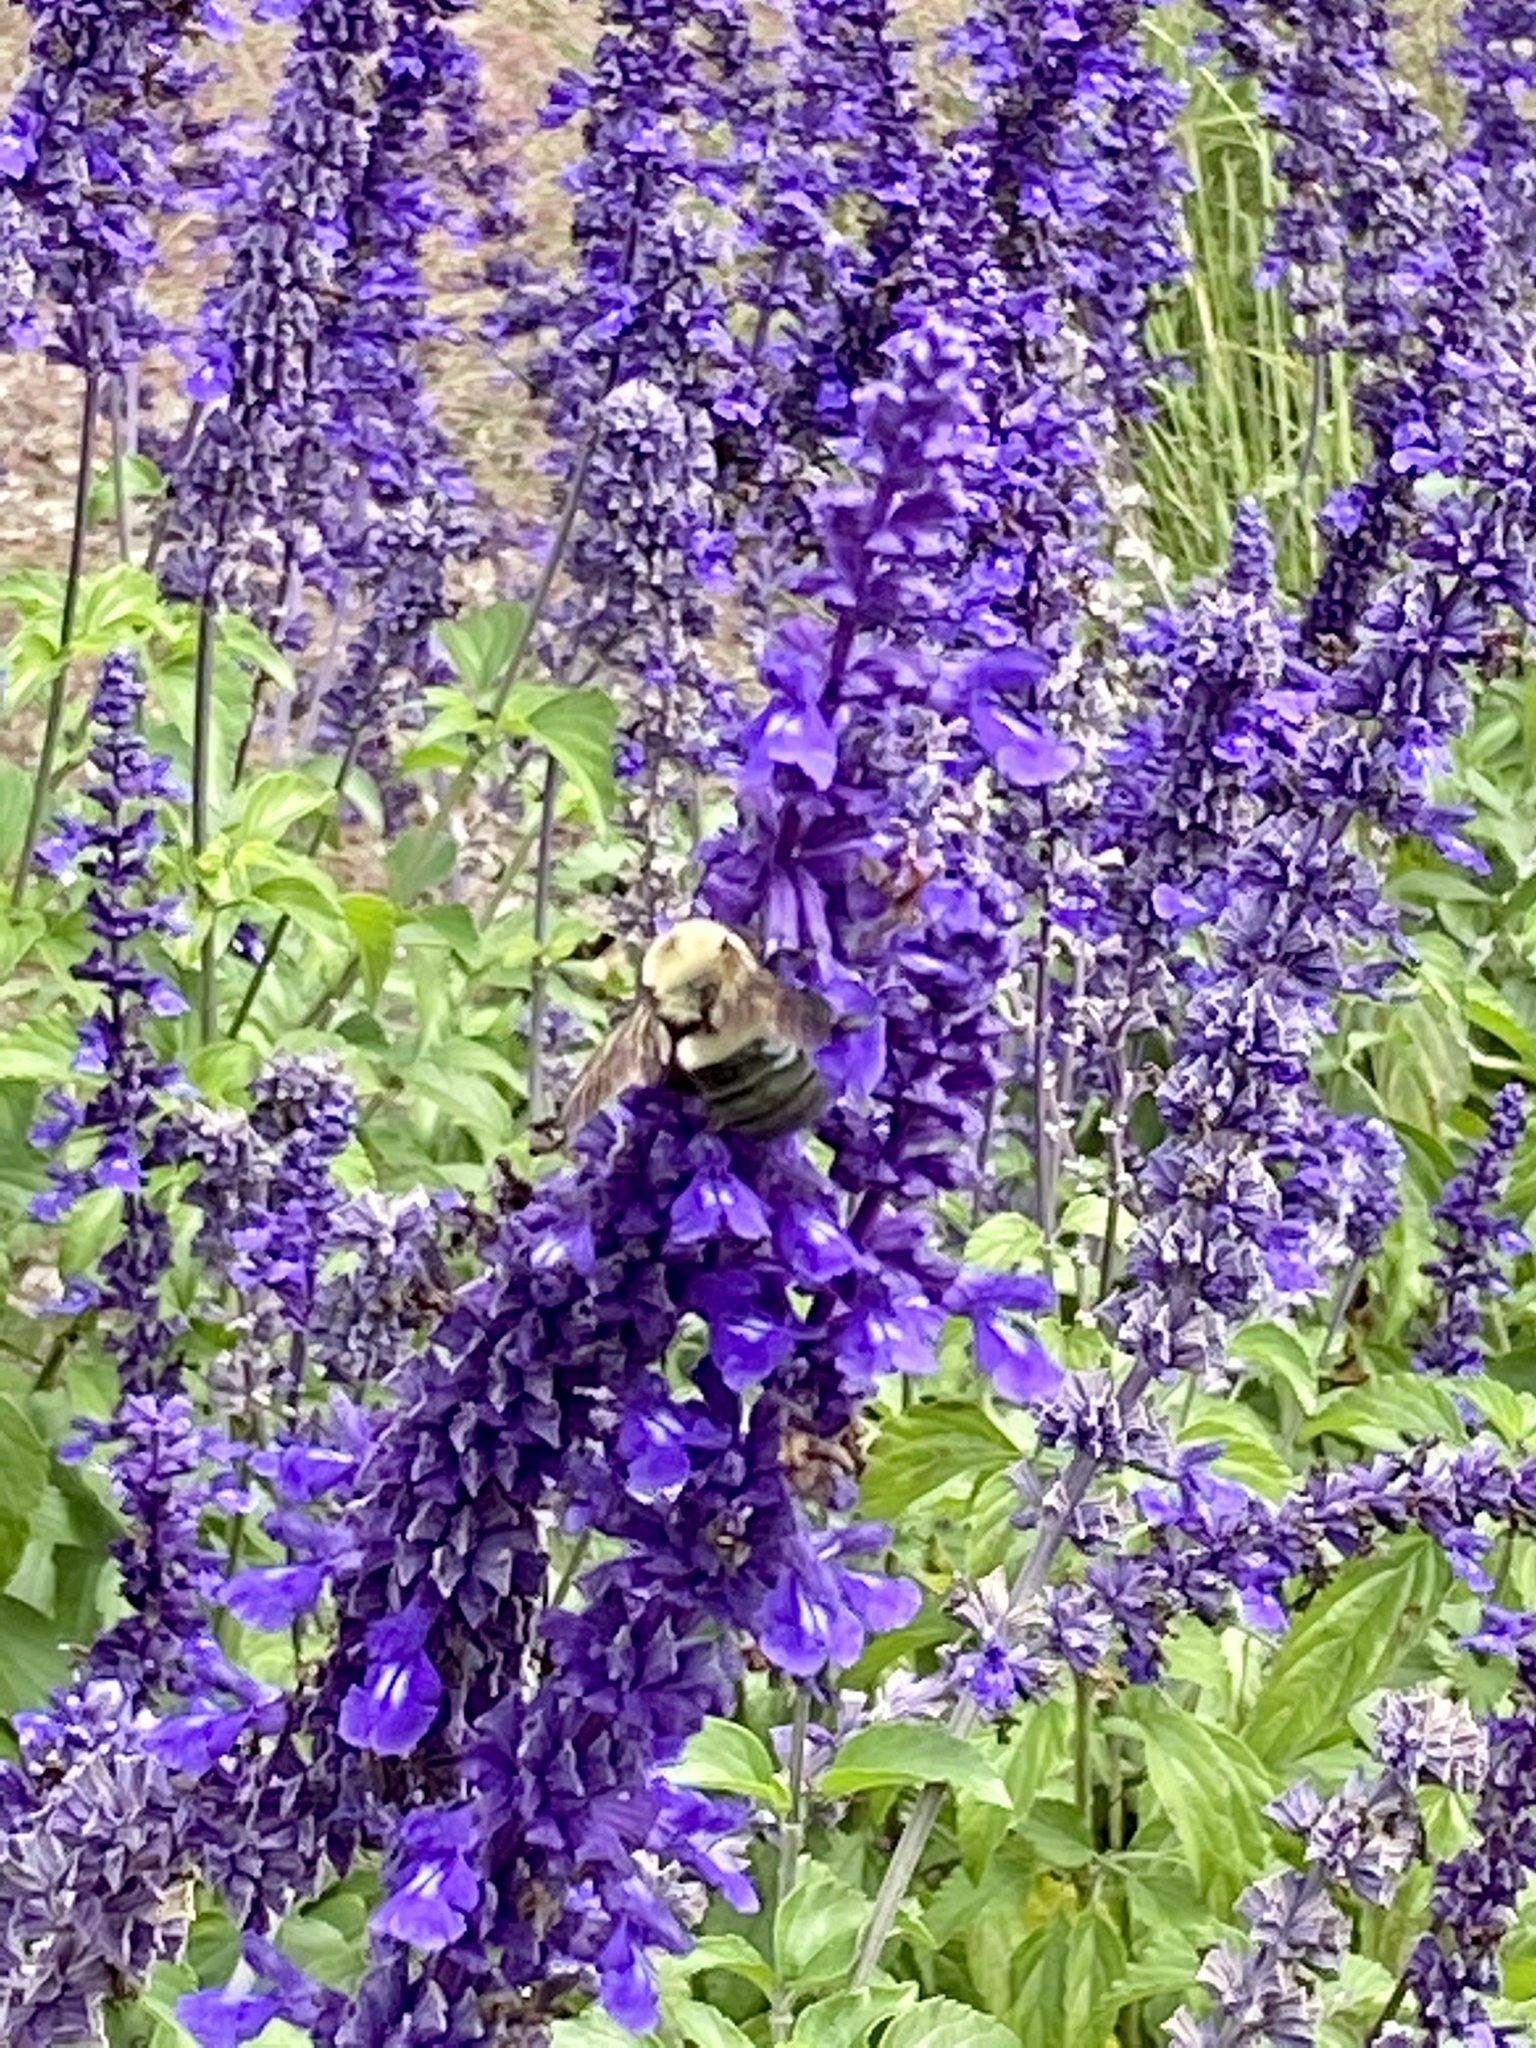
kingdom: Animalia
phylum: Arthropoda
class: Insecta
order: Hymenoptera
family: Apidae
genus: Xylocopa
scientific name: Xylocopa virginica
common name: Carpenter bee
